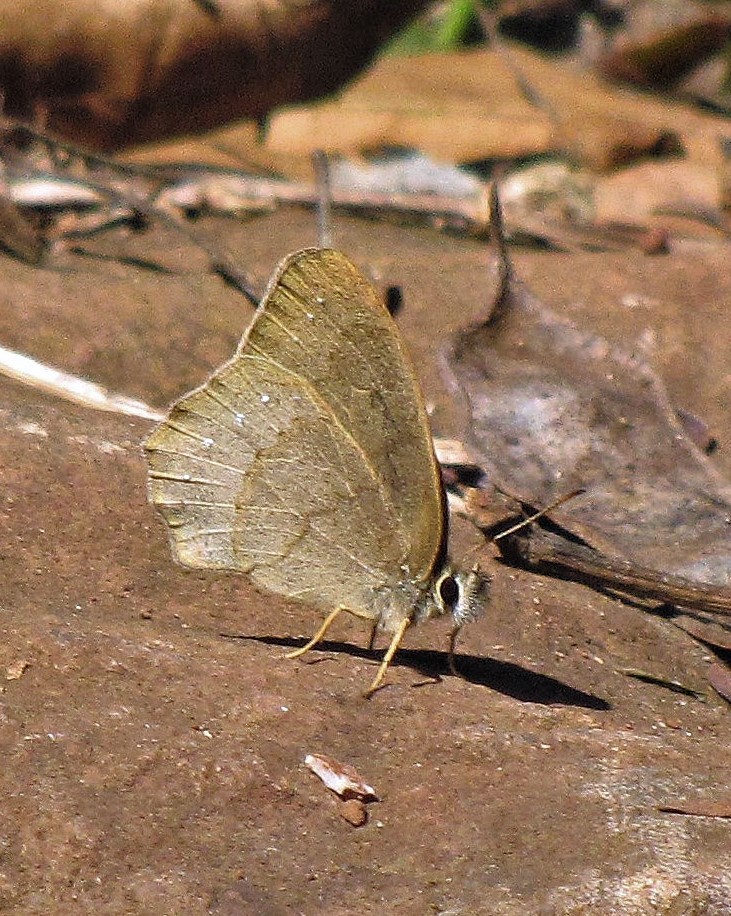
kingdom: Animalia
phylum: Arthropoda
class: Insecta
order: Lepidoptera
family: Nymphalidae
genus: Euptychia
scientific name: Euptychia
